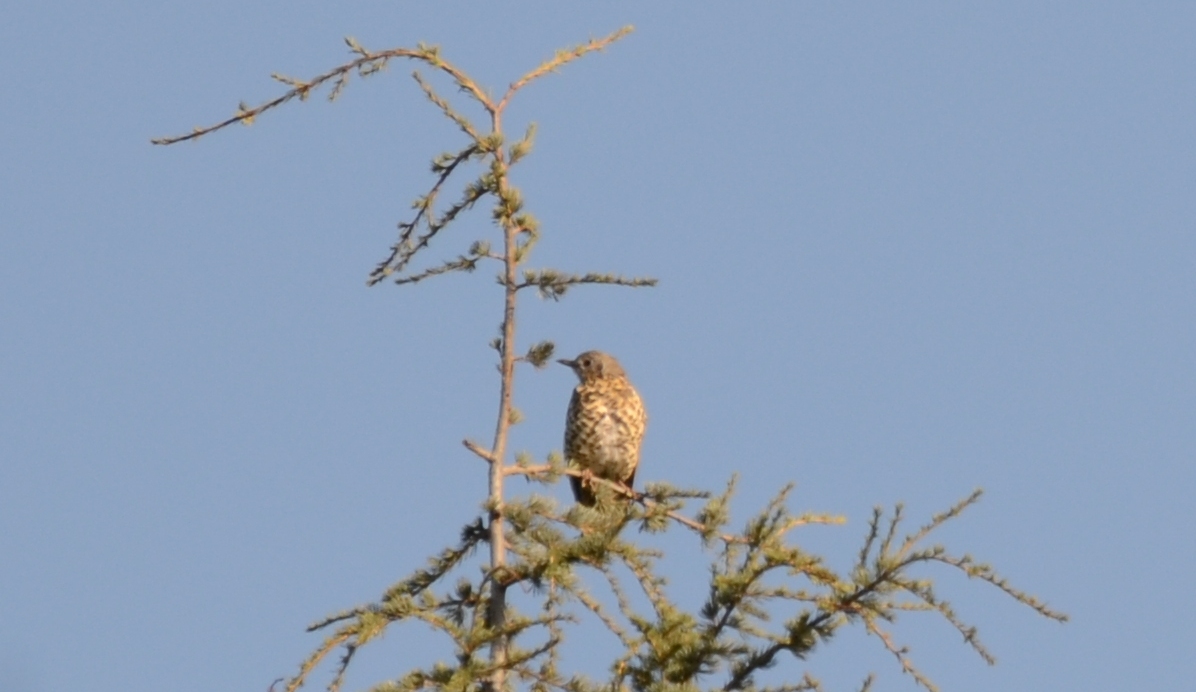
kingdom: Animalia
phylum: Chordata
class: Aves
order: Passeriformes
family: Turdidae
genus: Turdus
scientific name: Turdus viscivorus
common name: Mistle thrush
